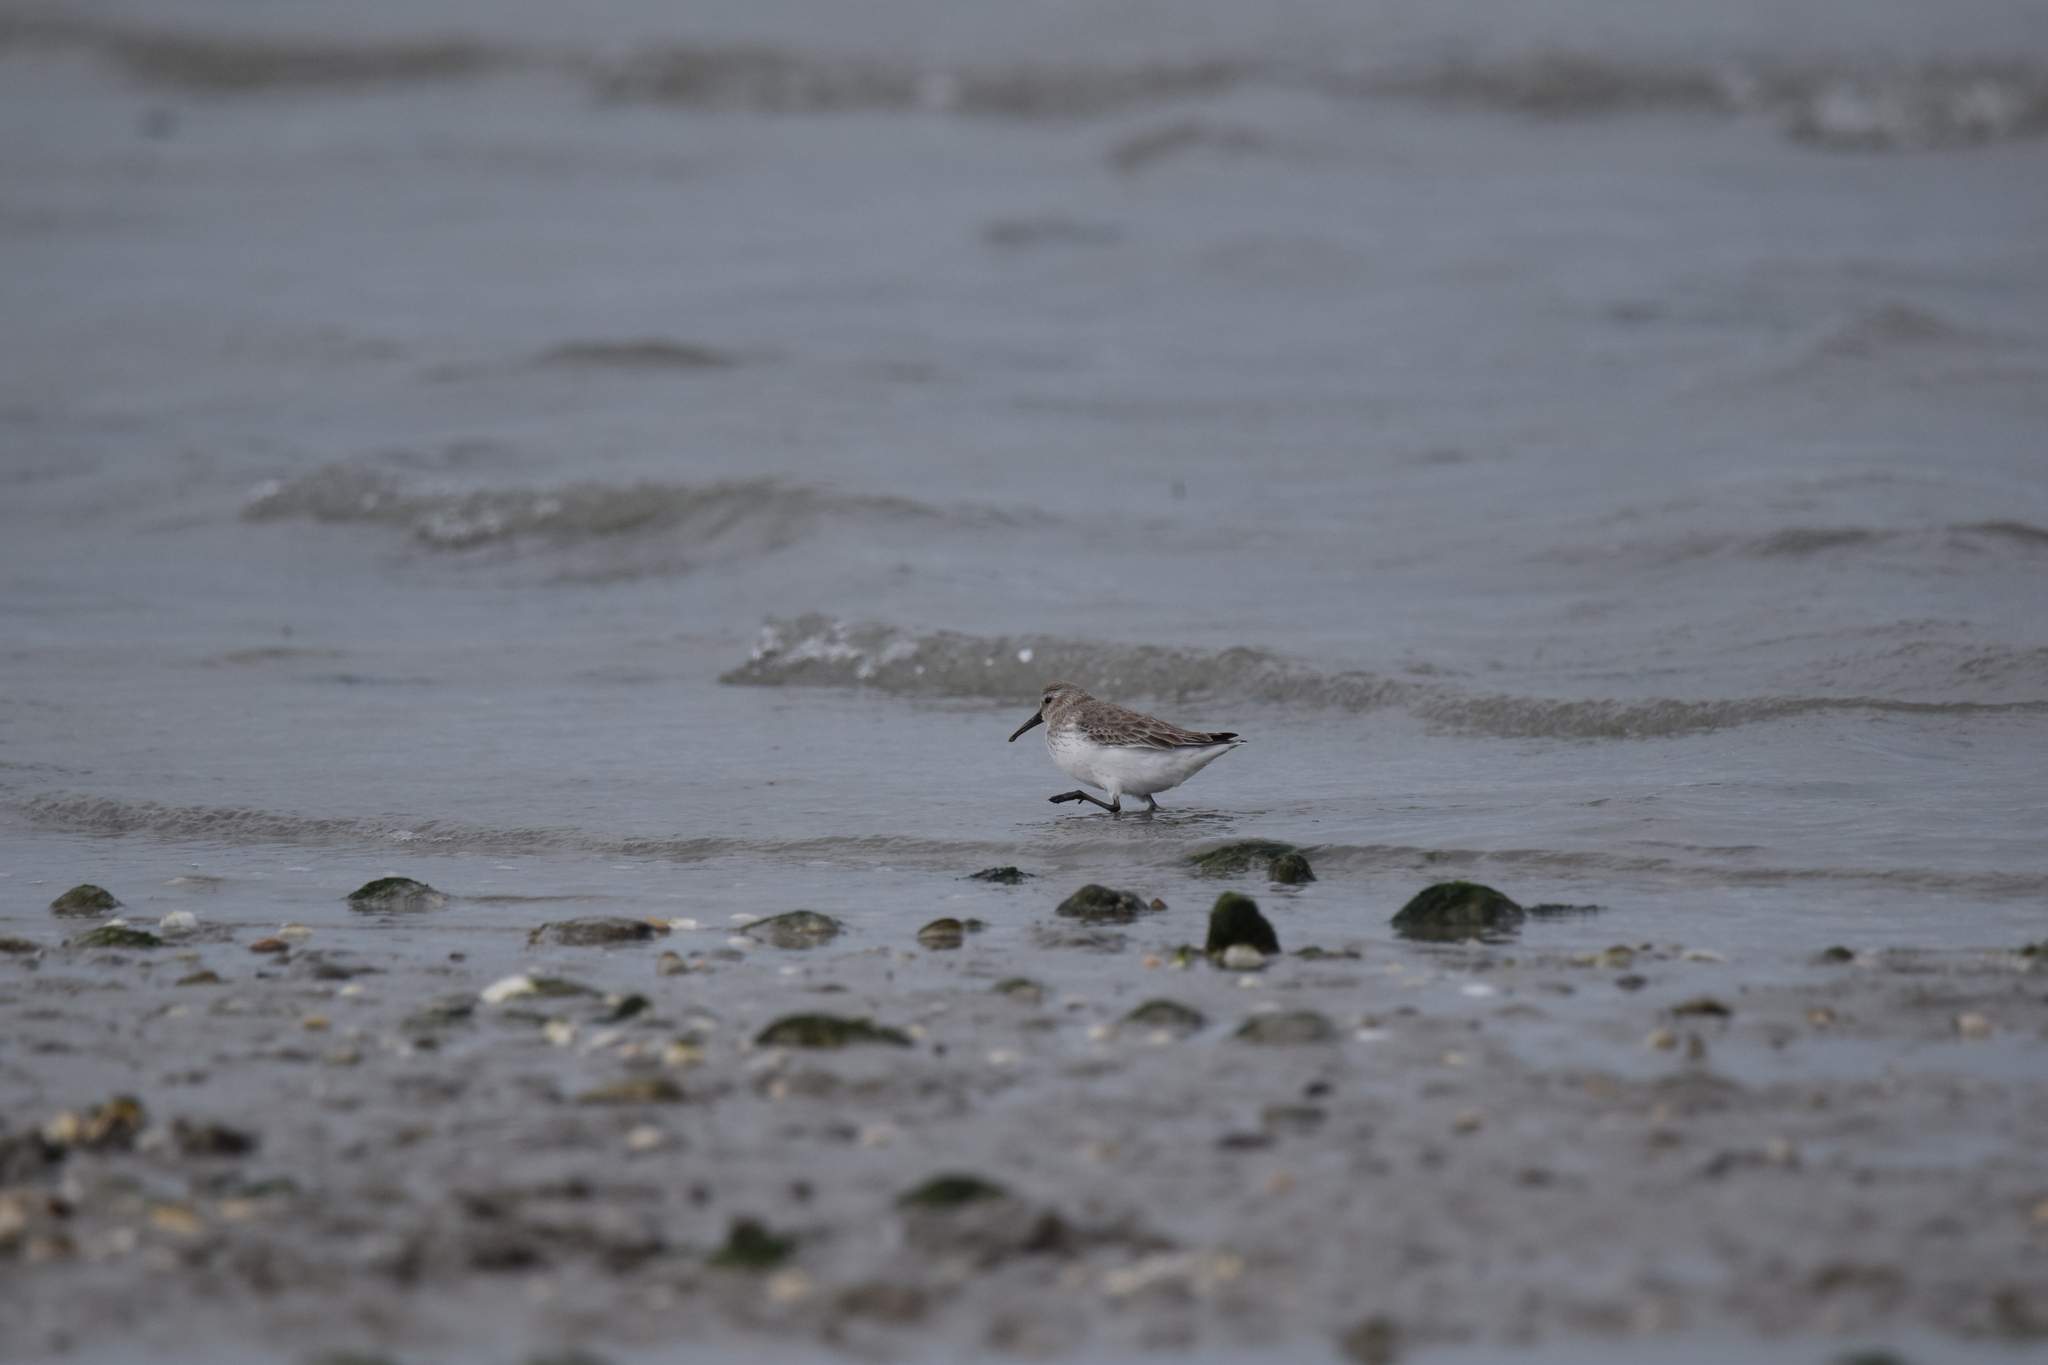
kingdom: Animalia
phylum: Chordata
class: Aves
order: Charadriiformes
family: Scolopacidae
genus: Calidris
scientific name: Calidris alpina
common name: Dunlin
